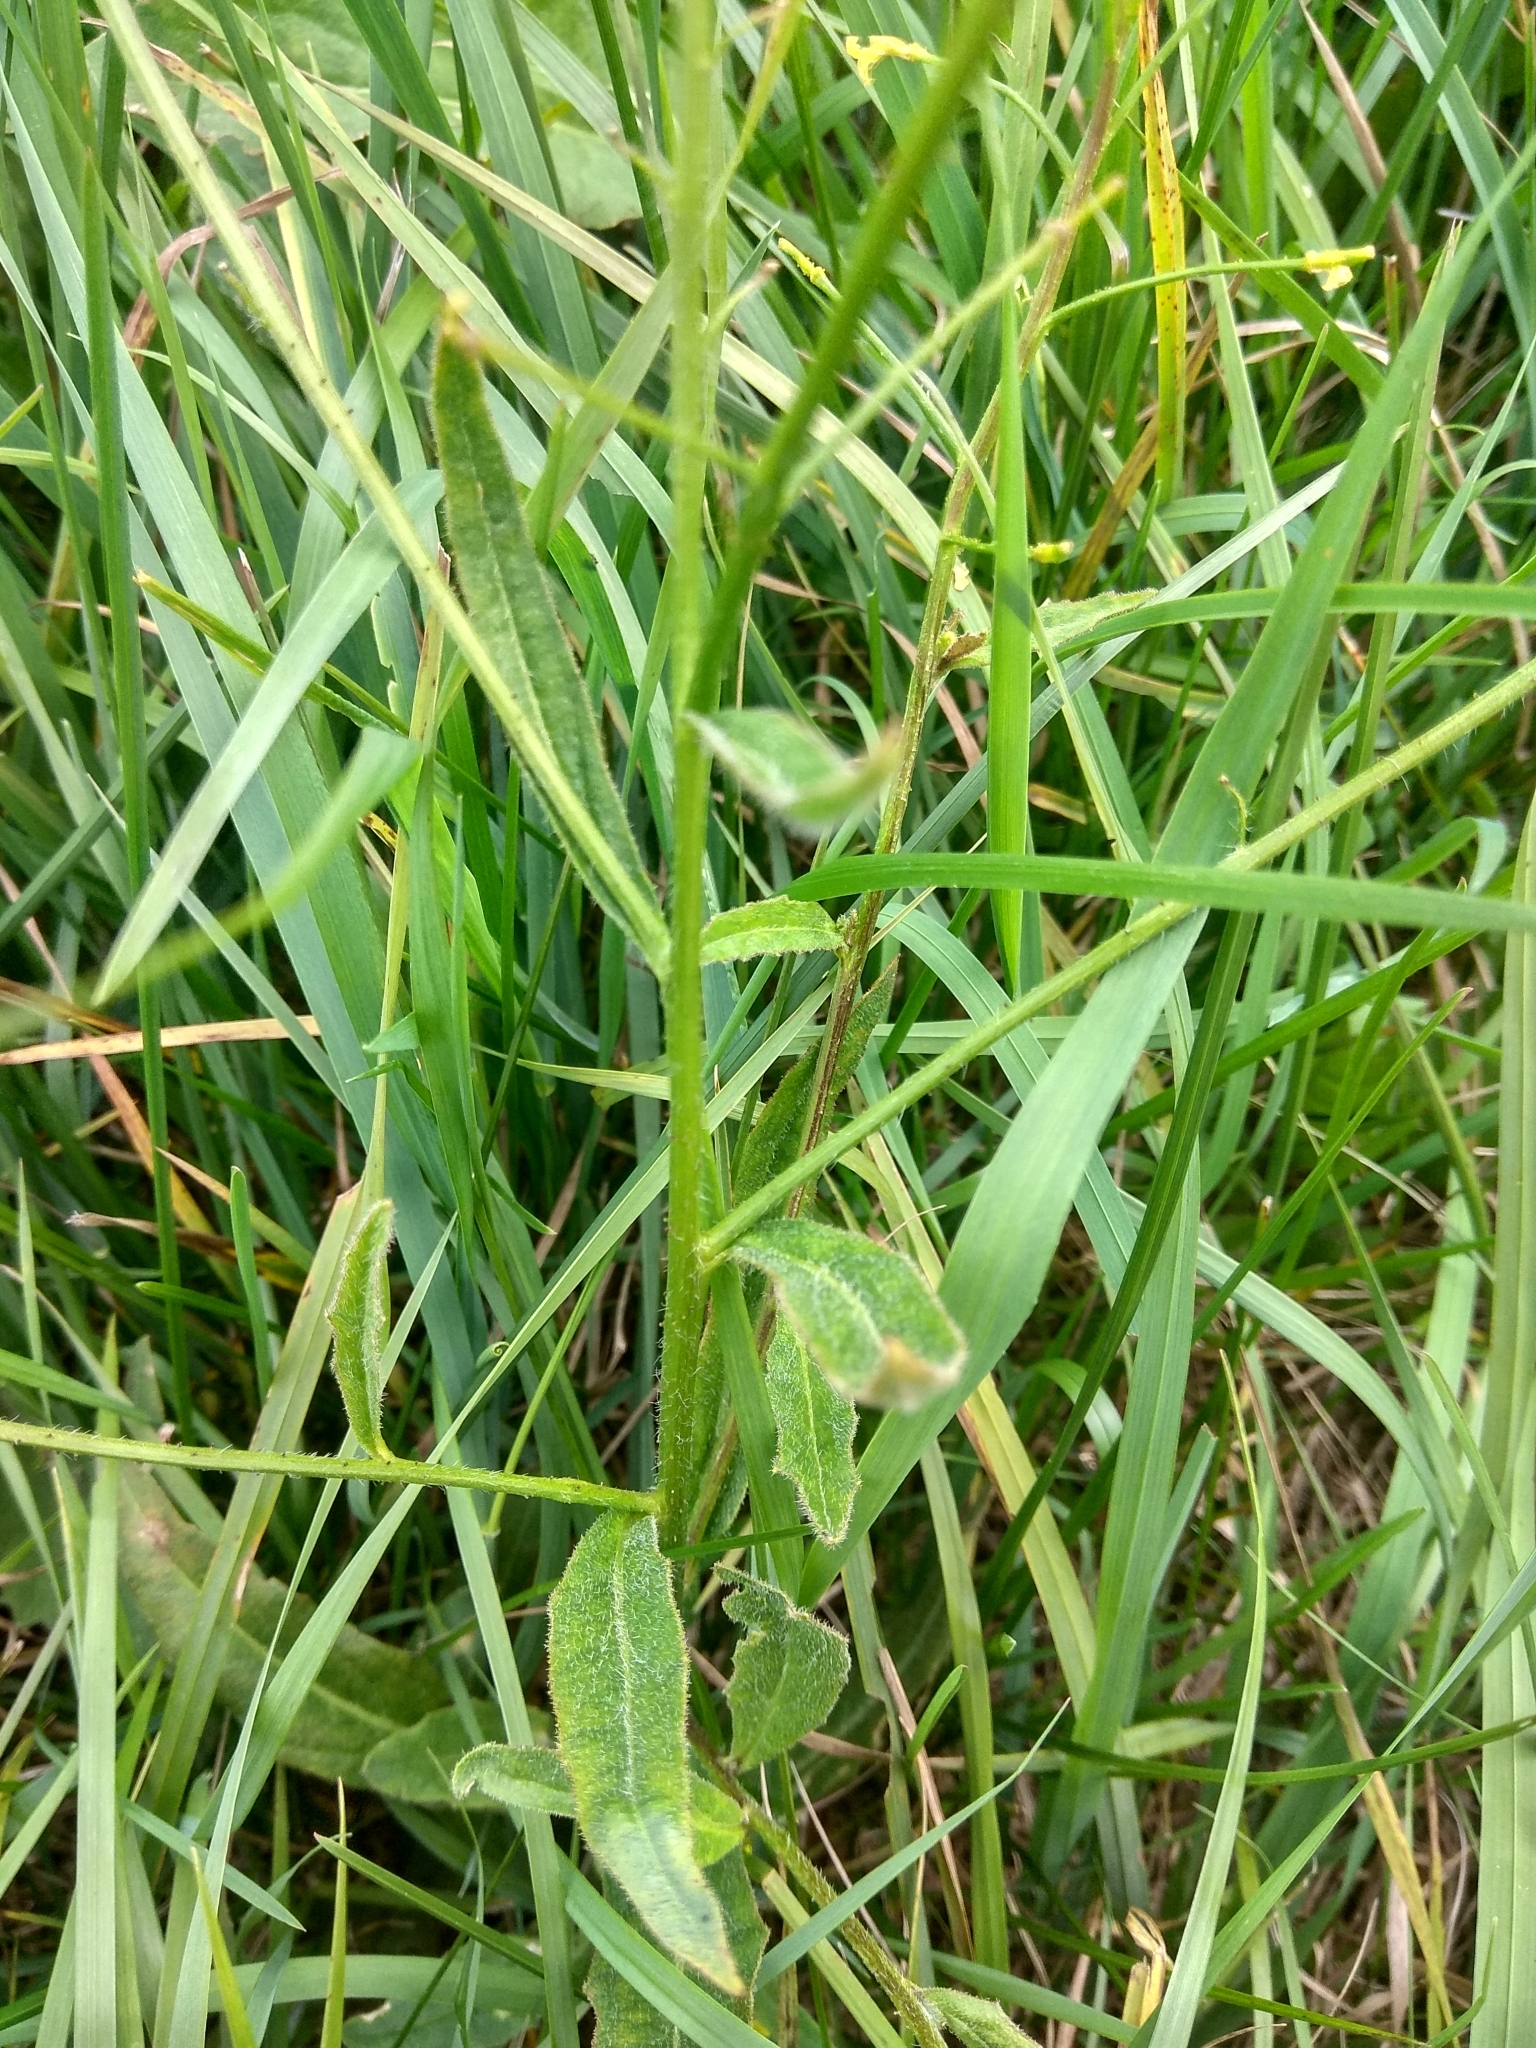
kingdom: Plantae
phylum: Tracheophyta
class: Magnoliopsida
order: Brassicales
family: Brassicaceae
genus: Bunias
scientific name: Bunias orientalis
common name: Warty-cabbage
